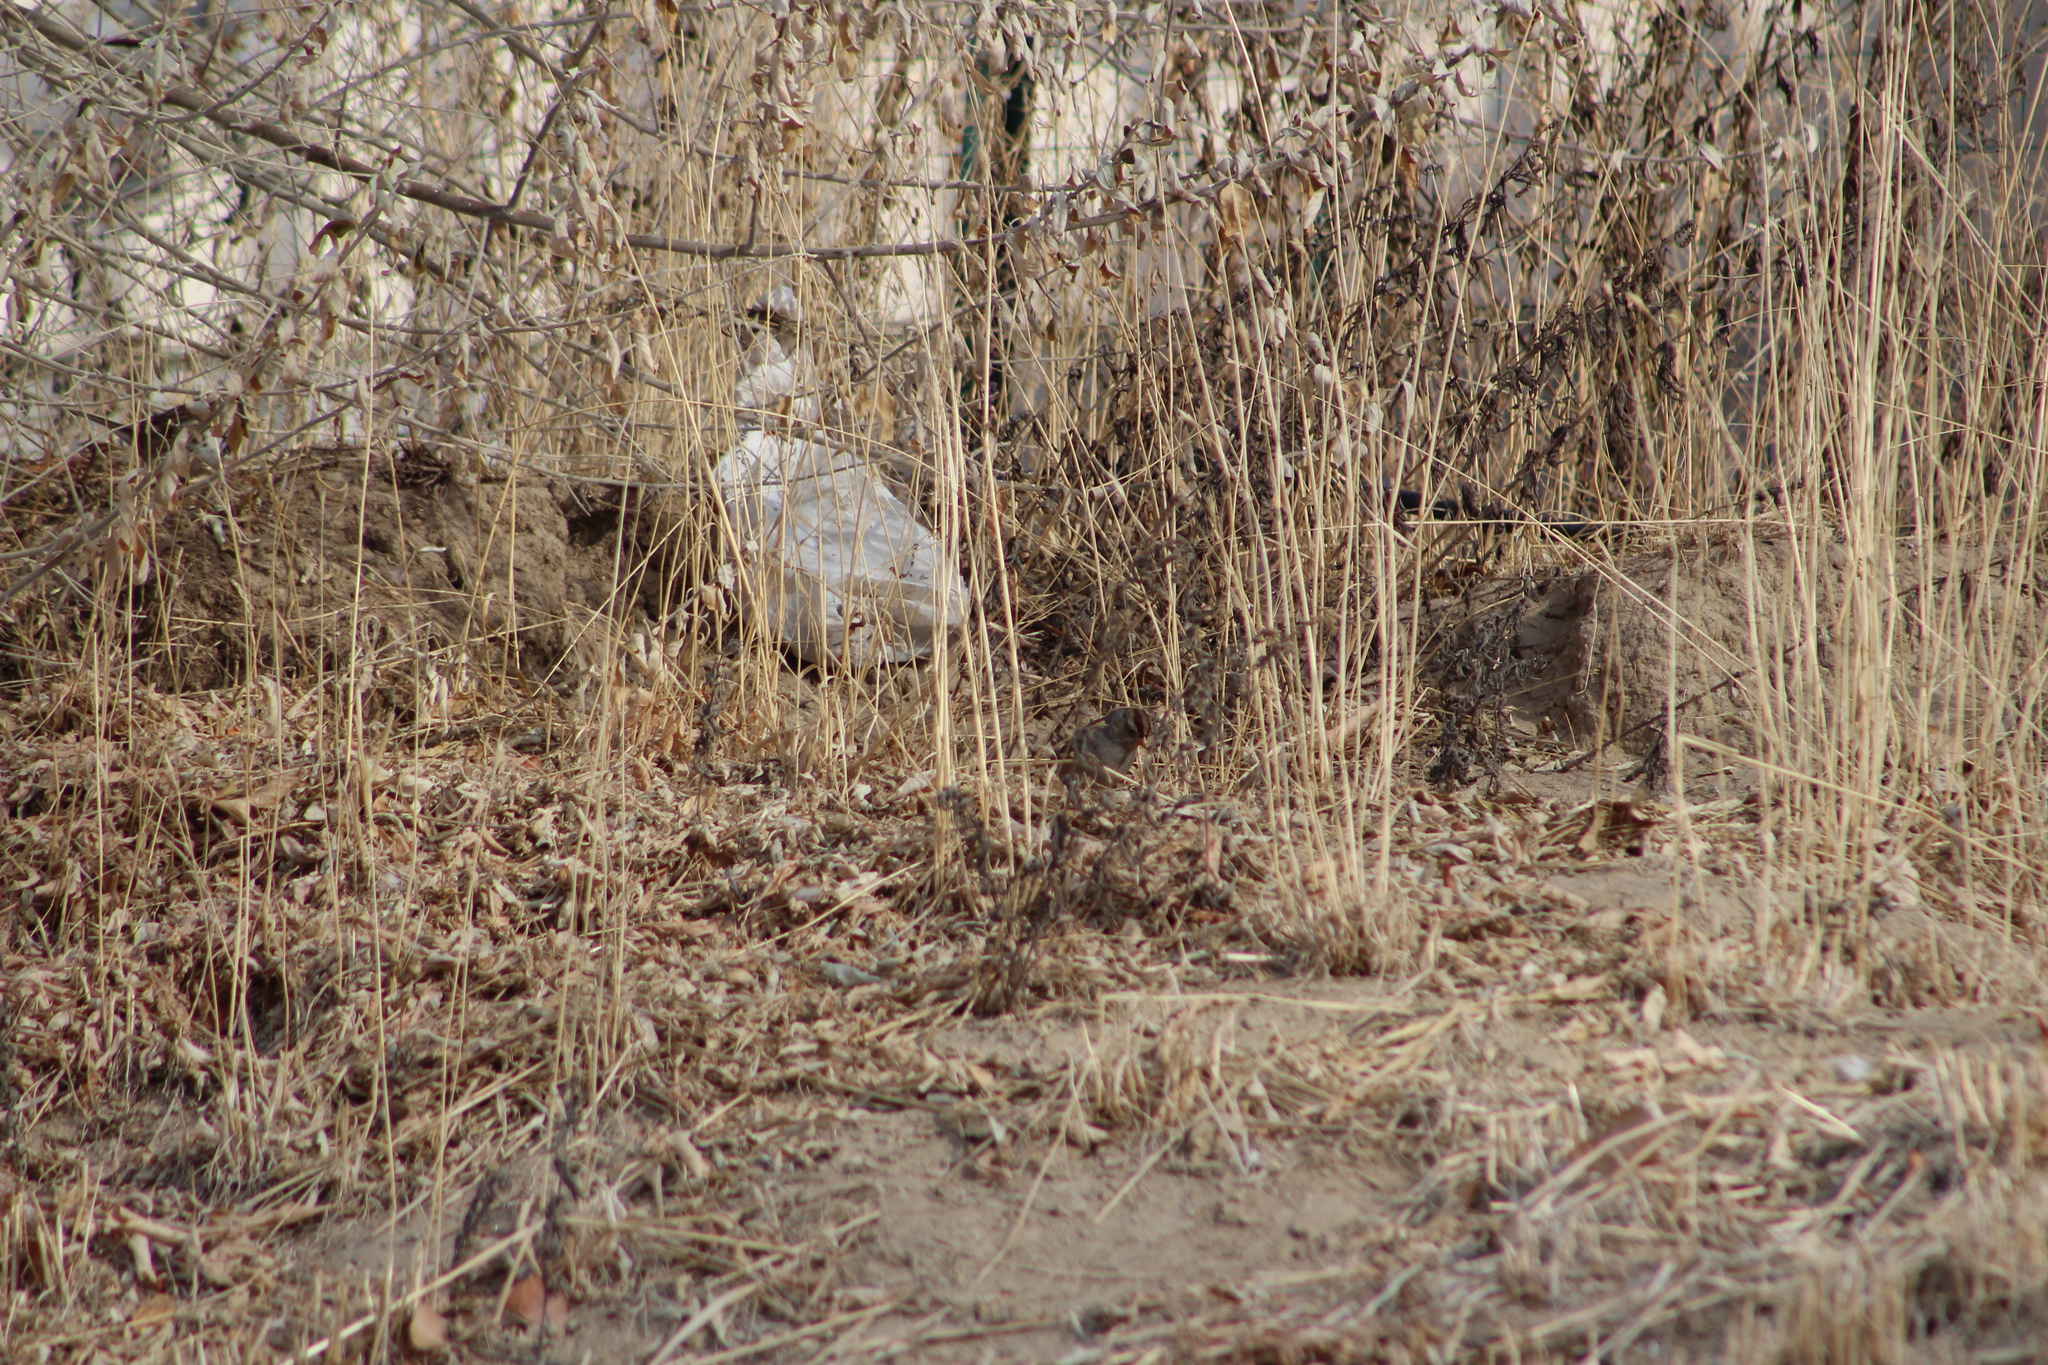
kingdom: Animalia
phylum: Chordata
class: Aves
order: Passeriformes
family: Passerellidae
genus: Zonotrichia
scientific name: Zonotrichia leucophrys
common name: White-crowned sparrow
